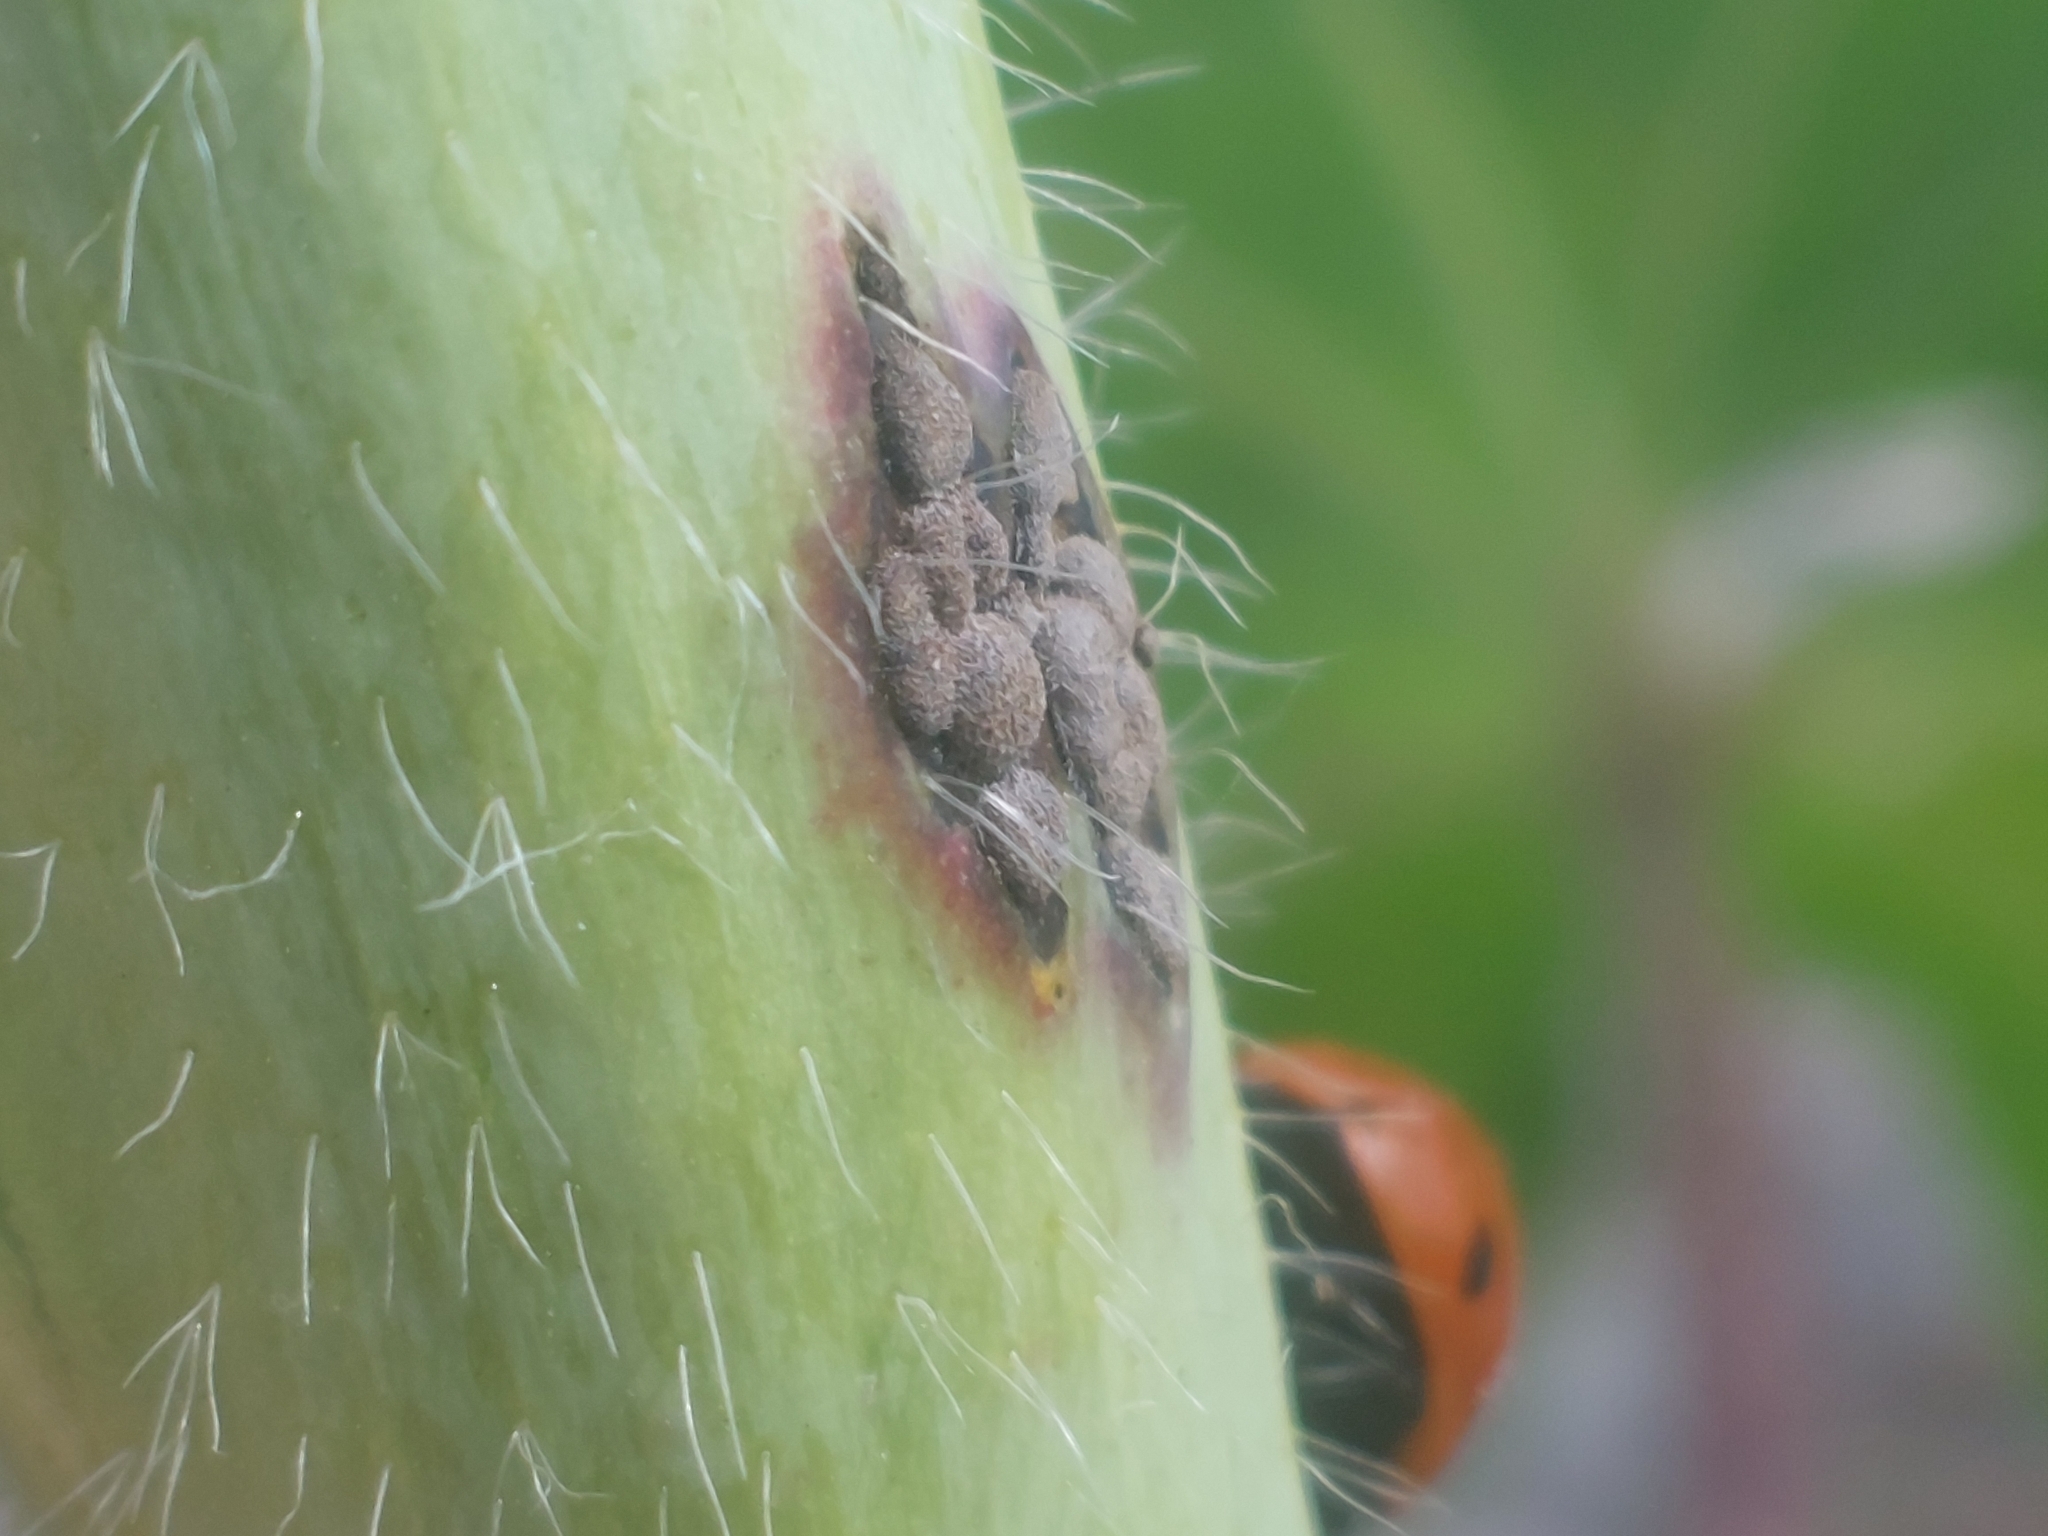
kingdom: Fungi
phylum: Basidiomycota
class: Pucciniomycetes
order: Pucciniales
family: Pucciniaceae
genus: Puccinia
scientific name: Puccinia malvacearum
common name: Hollyhock rust
